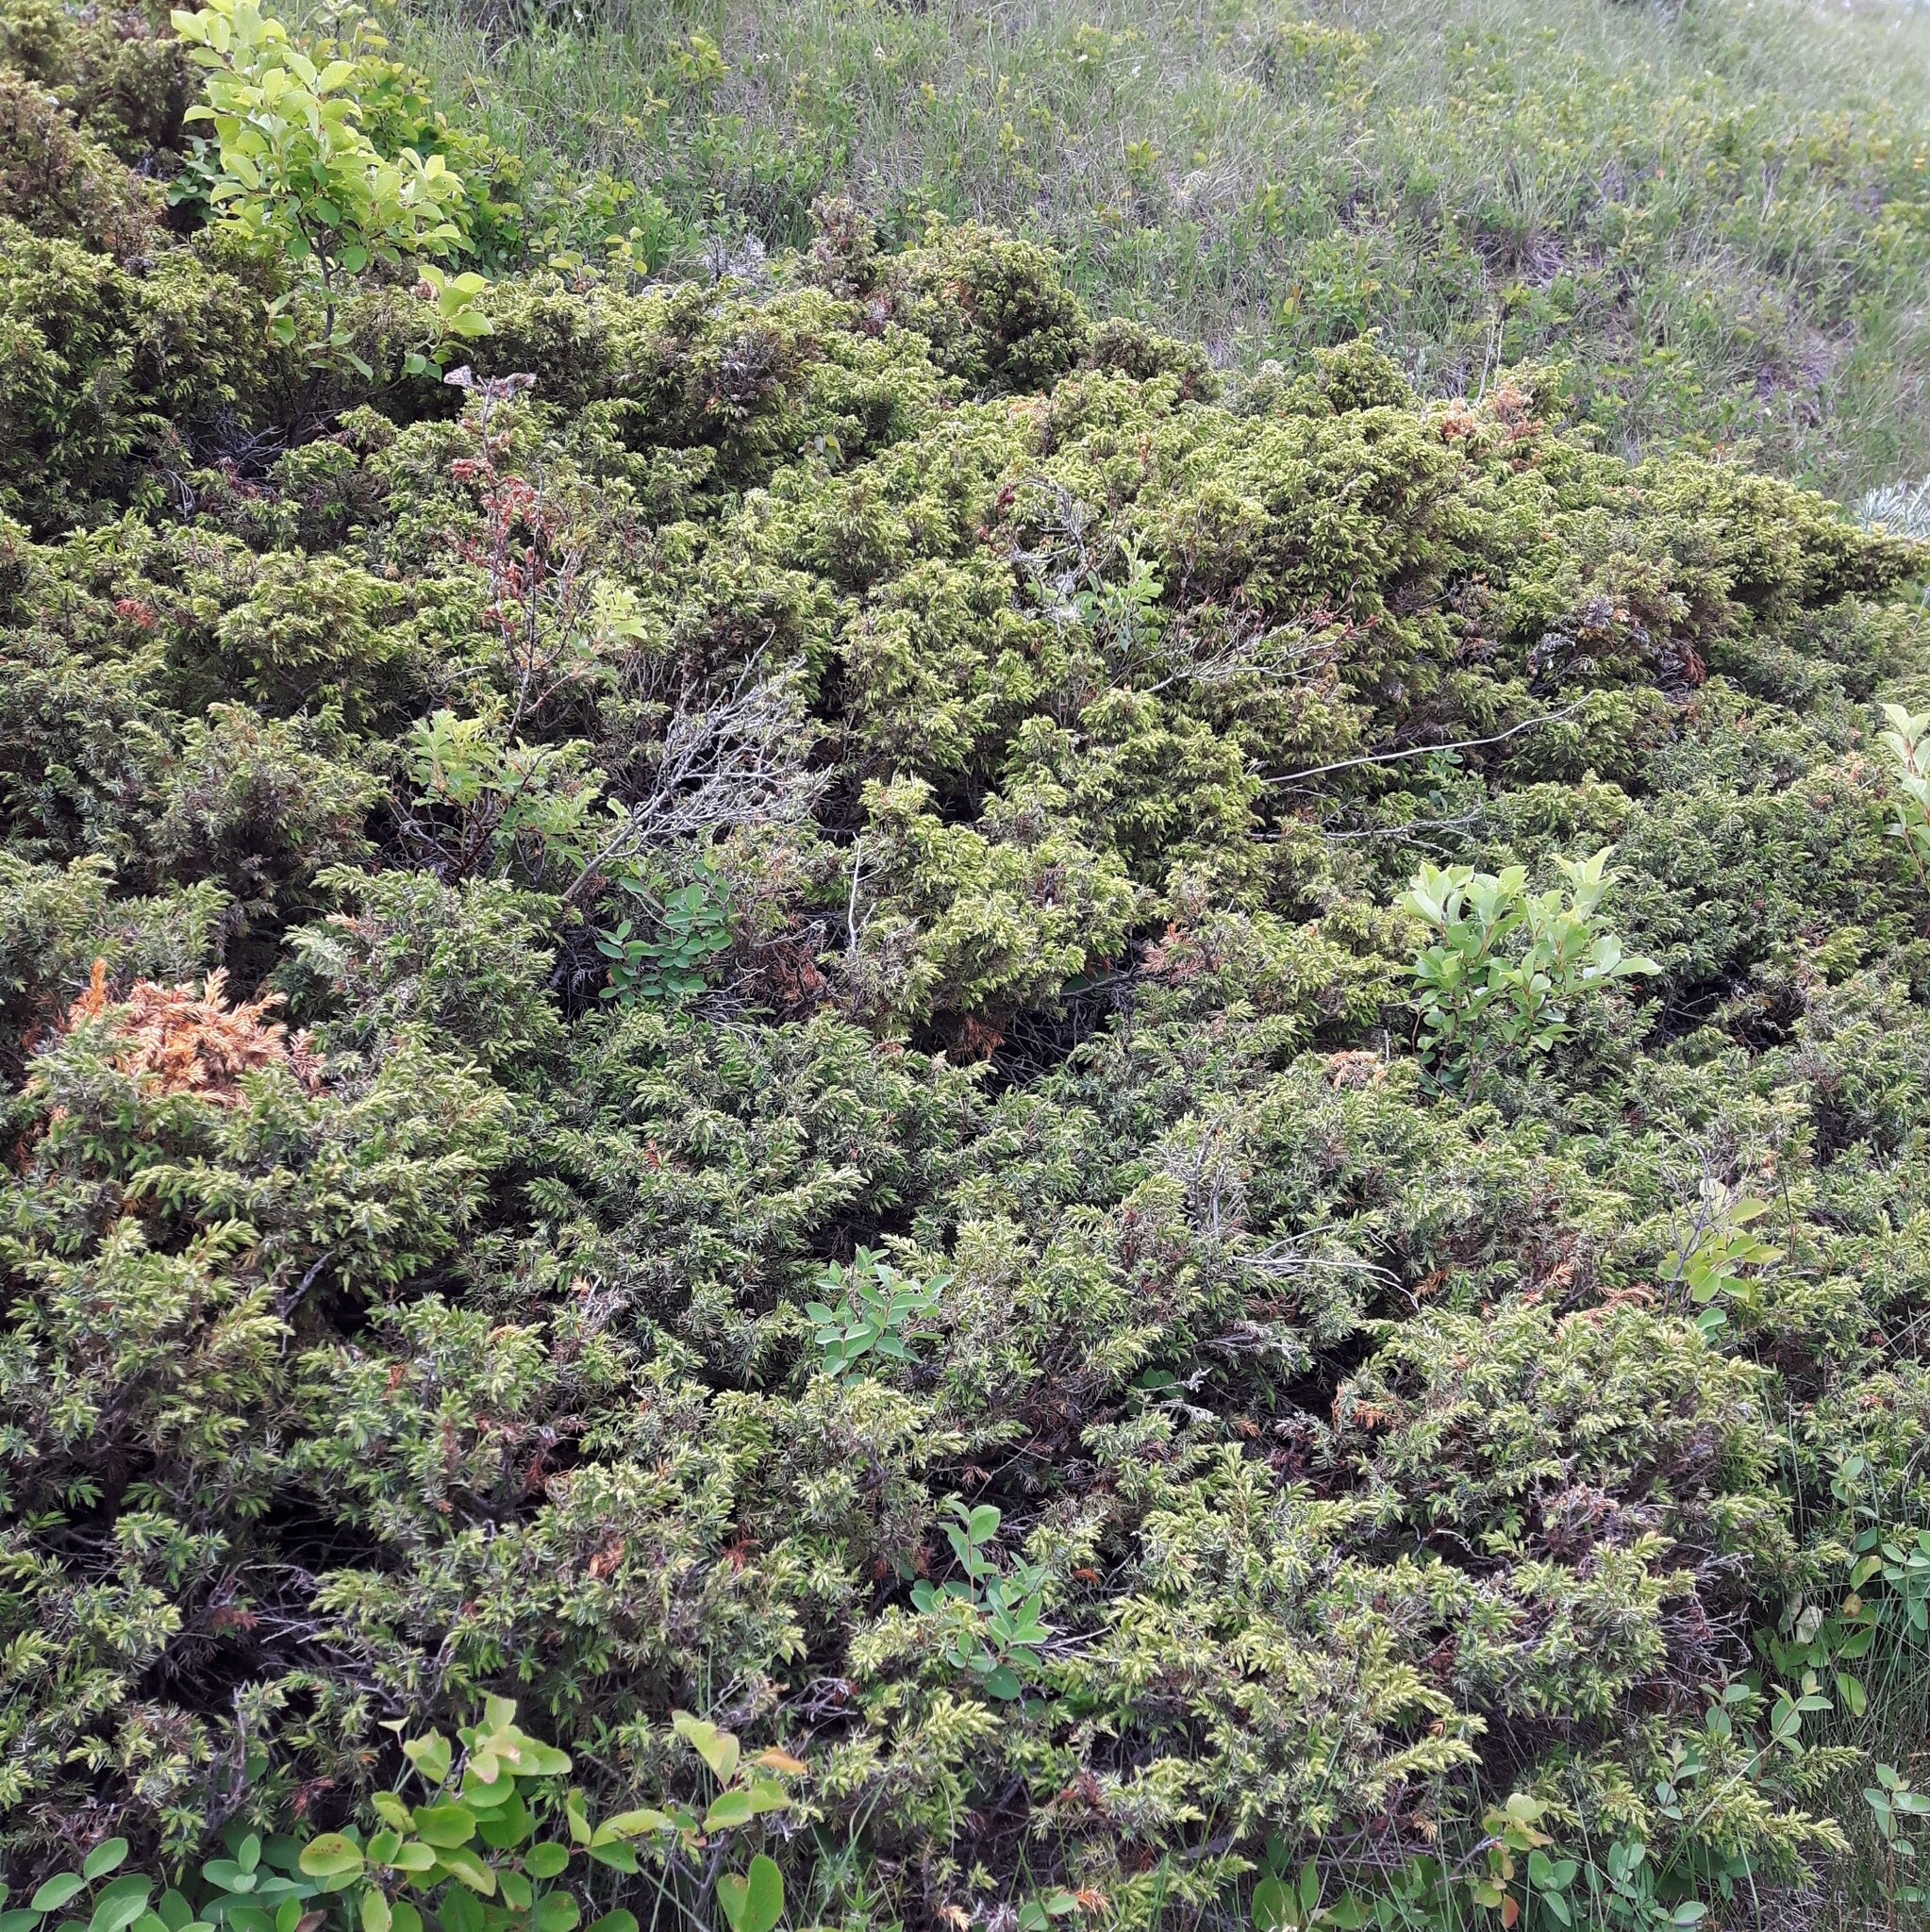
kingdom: Plantae
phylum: Tracheophyta
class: Pinopsida
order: Pinales
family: Cupressaceae
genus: Juniperus
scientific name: Juniperus communis
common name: Common juniper
